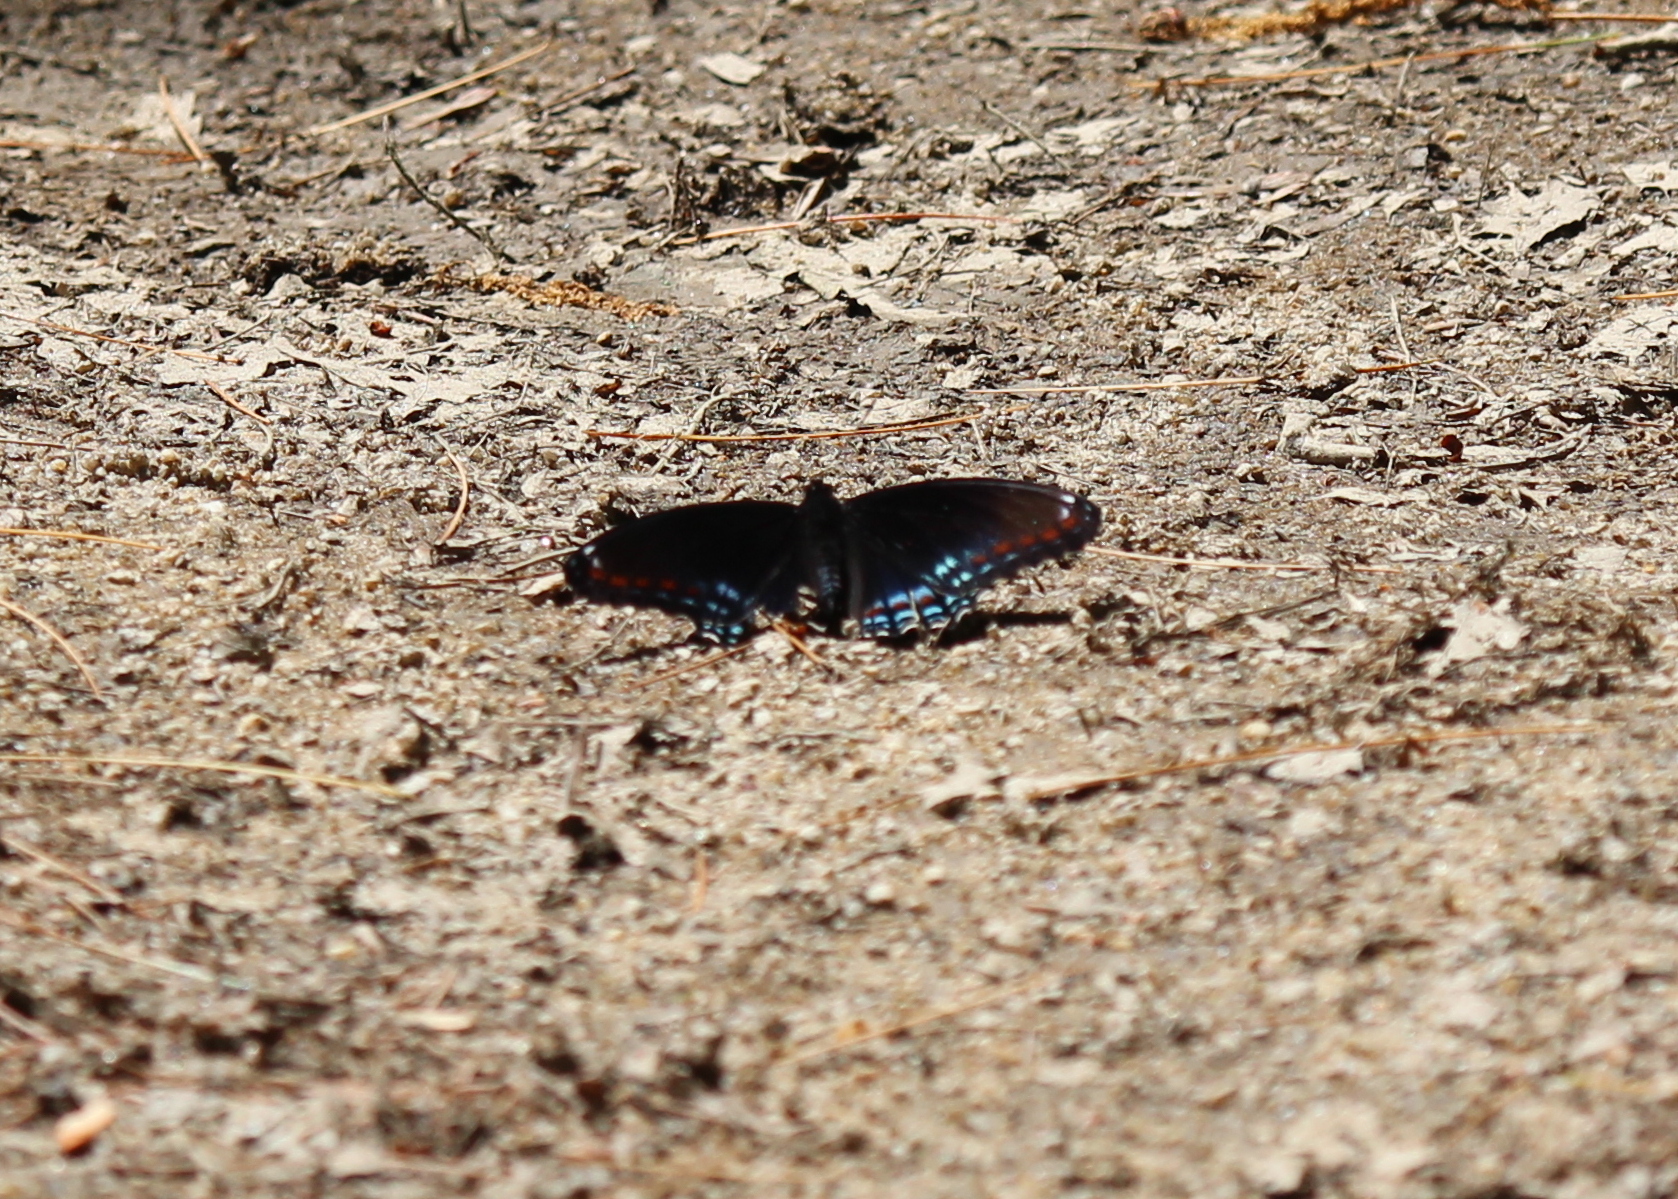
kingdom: Animalia
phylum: Arthropoda
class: Insecta
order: Lepidoptera
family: Nymphalidae
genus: Limenitis
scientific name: Limenitis astyanax
